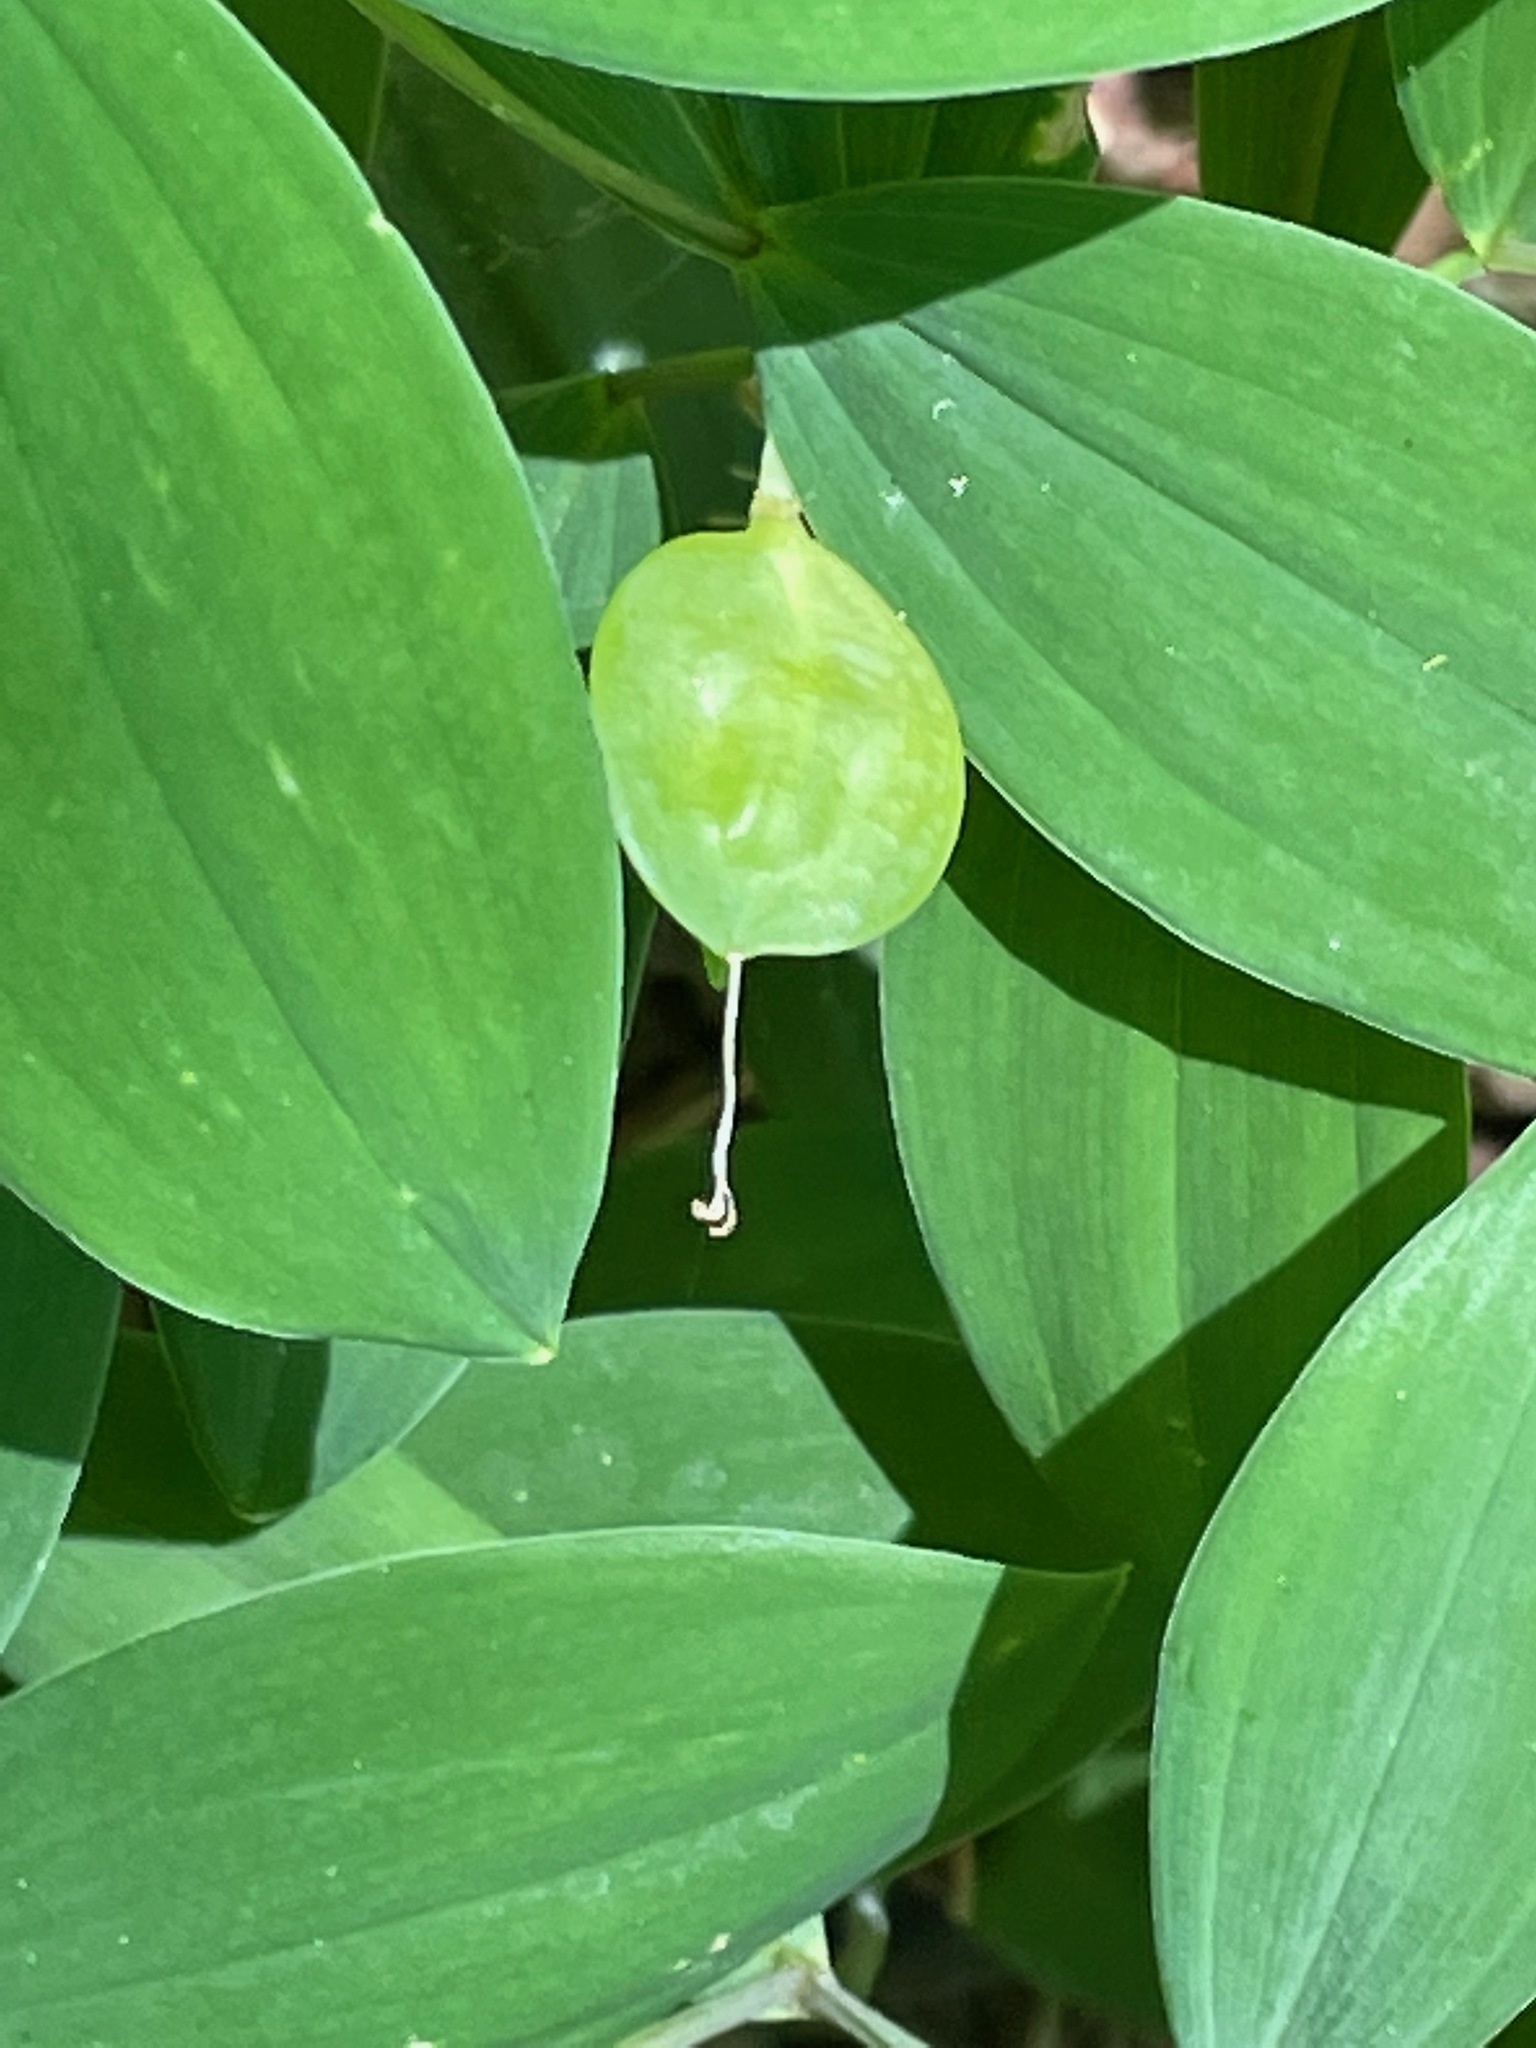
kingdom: Plantae
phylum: Tracheophyta
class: Liliopsida
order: Liliales
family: Colchicaceae
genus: Uvularia
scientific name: Uvularia sessilifolia
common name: Straw-lily
